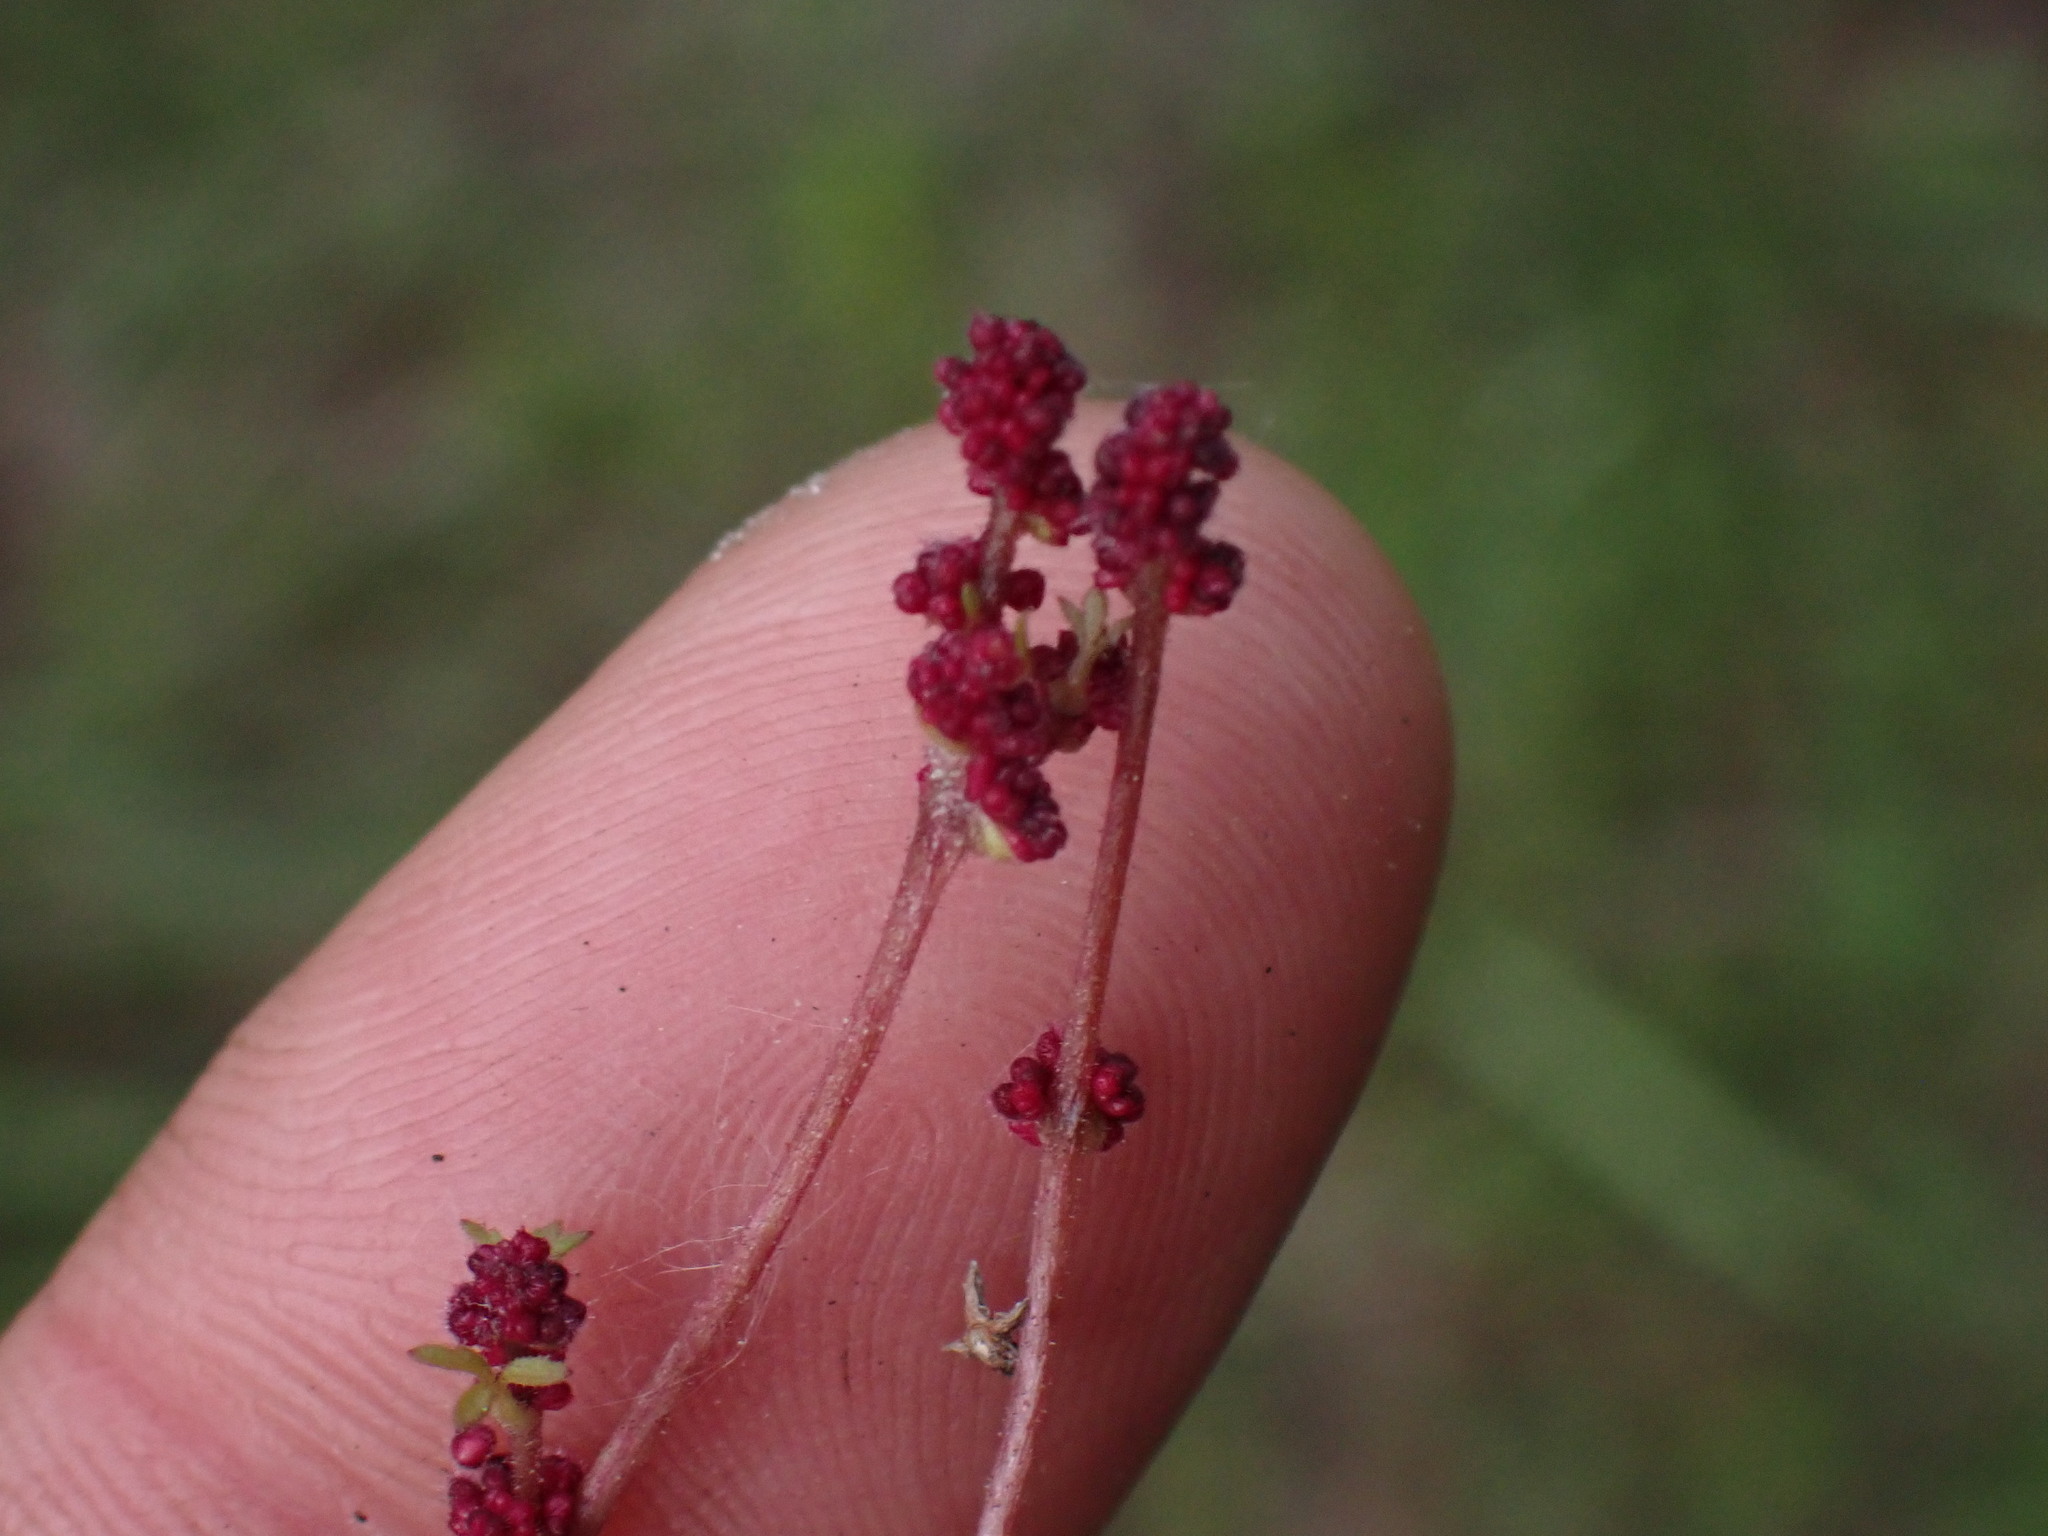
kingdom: Plantae
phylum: Tracheophyta
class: Magnoliopsida
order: Saxifragales
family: Saxifragaceae
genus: Lithophragma
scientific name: Lithophragma glabrum
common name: Bulbous prairie-star
